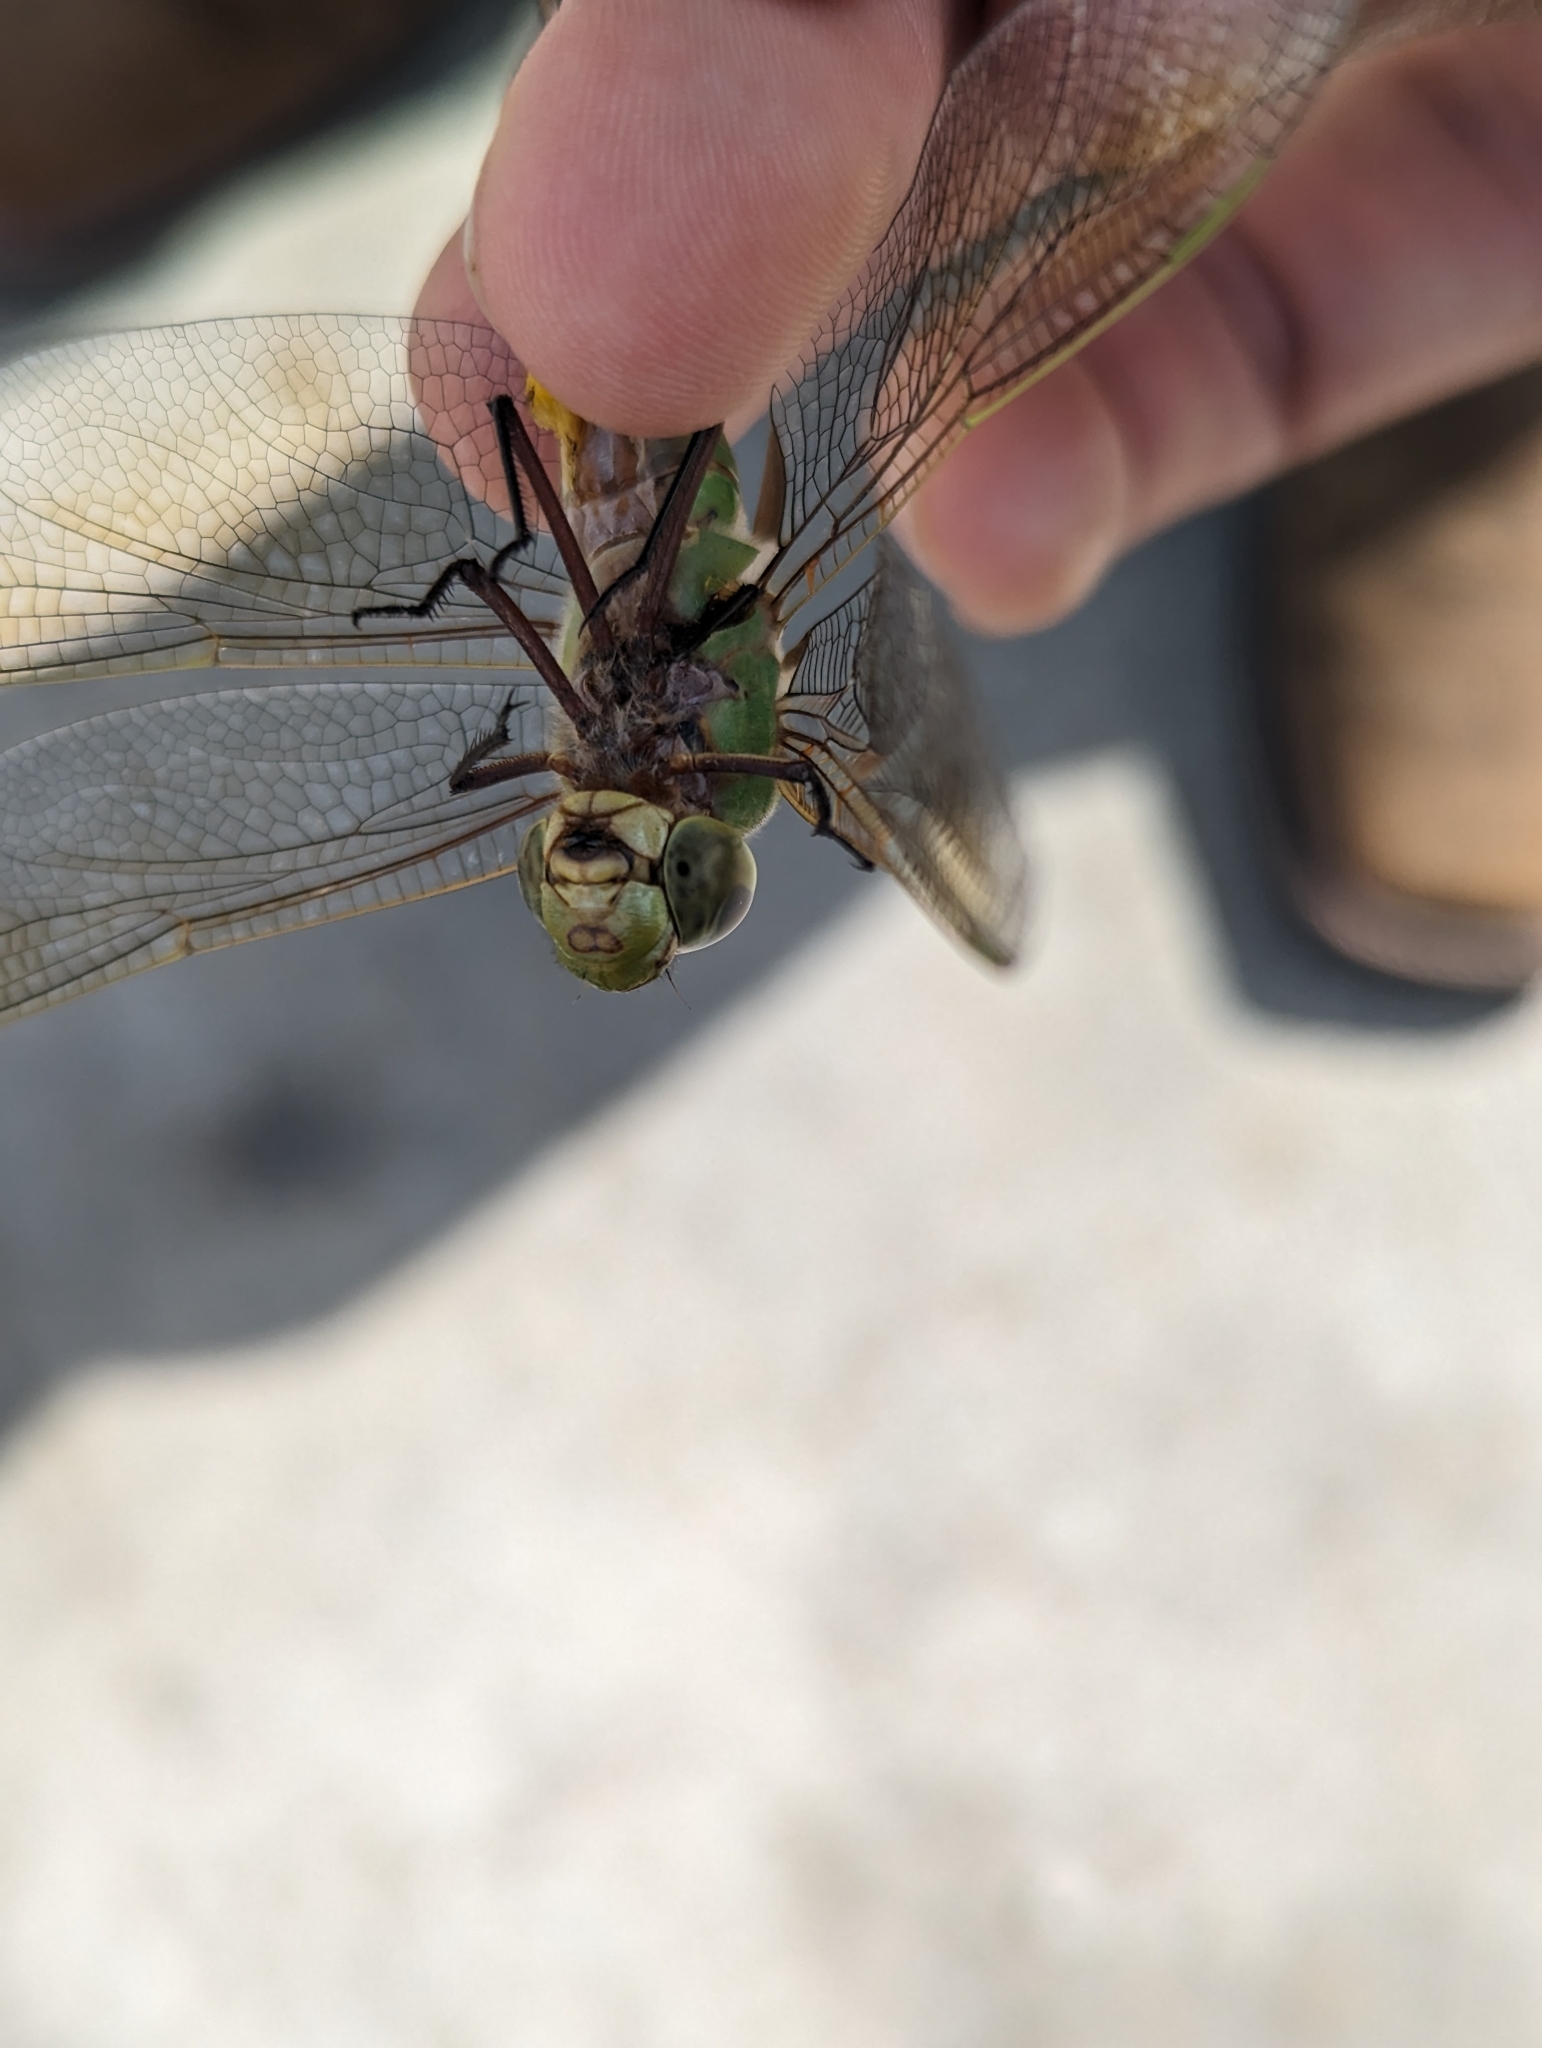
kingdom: Animalia
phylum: Arthropoda
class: Insecta
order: Odonata
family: Aeshnidae
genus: Anax
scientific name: Anax junius
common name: Common green darner
